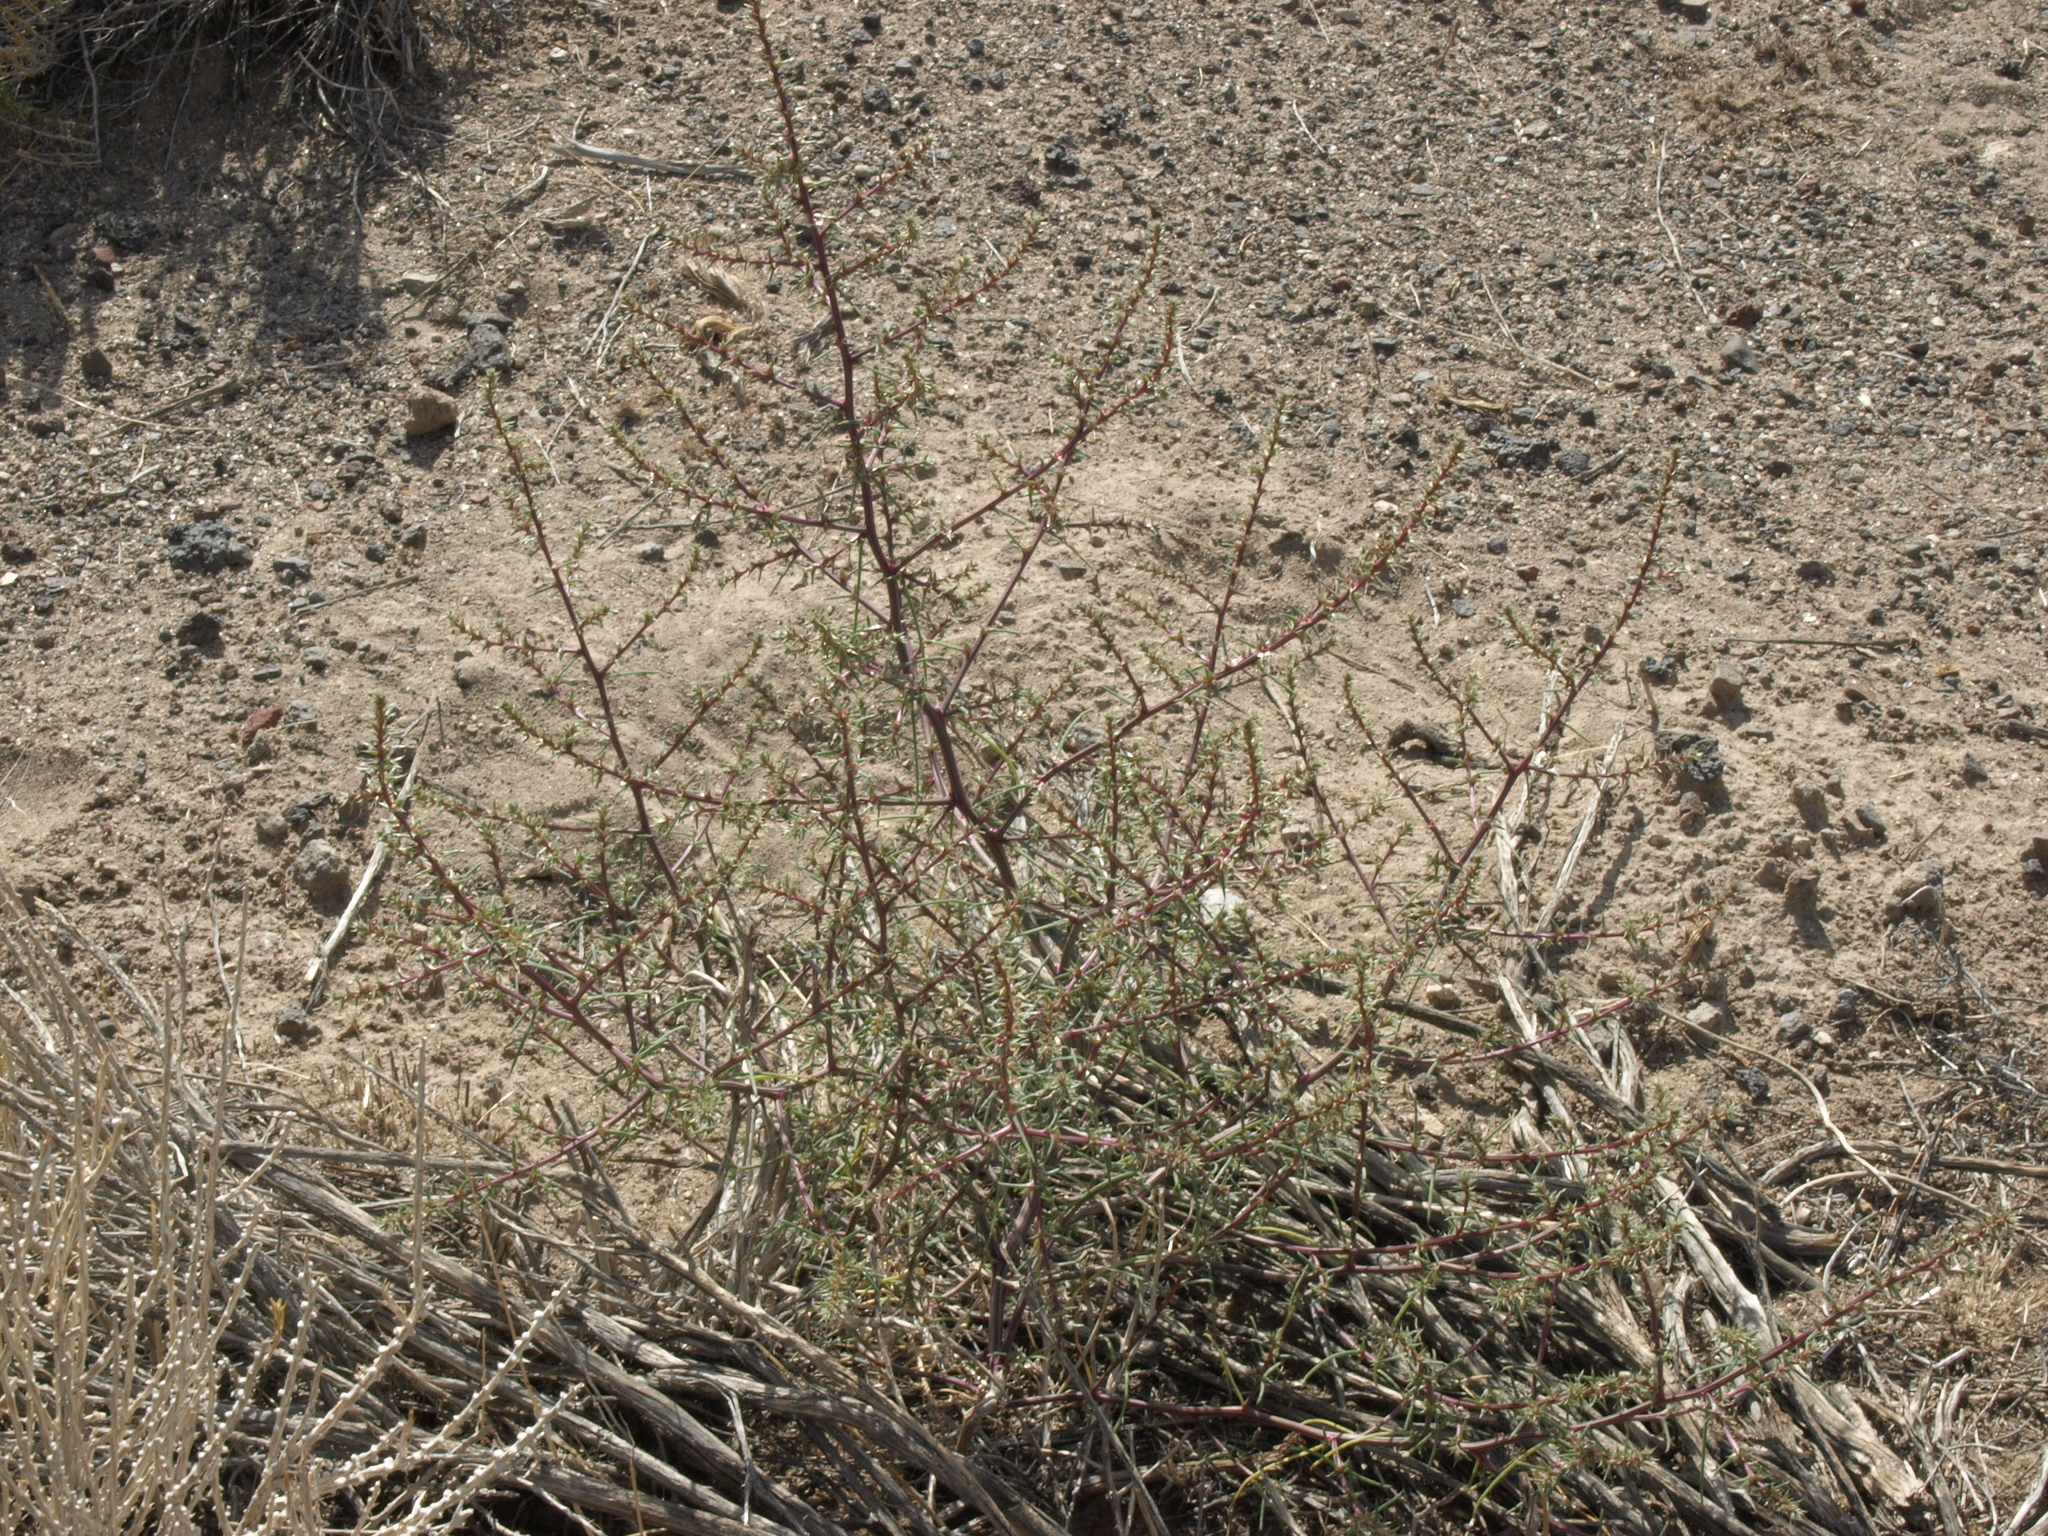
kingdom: Plantae
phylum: Tracheophyta
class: Magnoliopsida
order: Caryophyllales
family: Amaranthaceae
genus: Salsola
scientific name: Salsola tragus
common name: Prickly russian thistle
